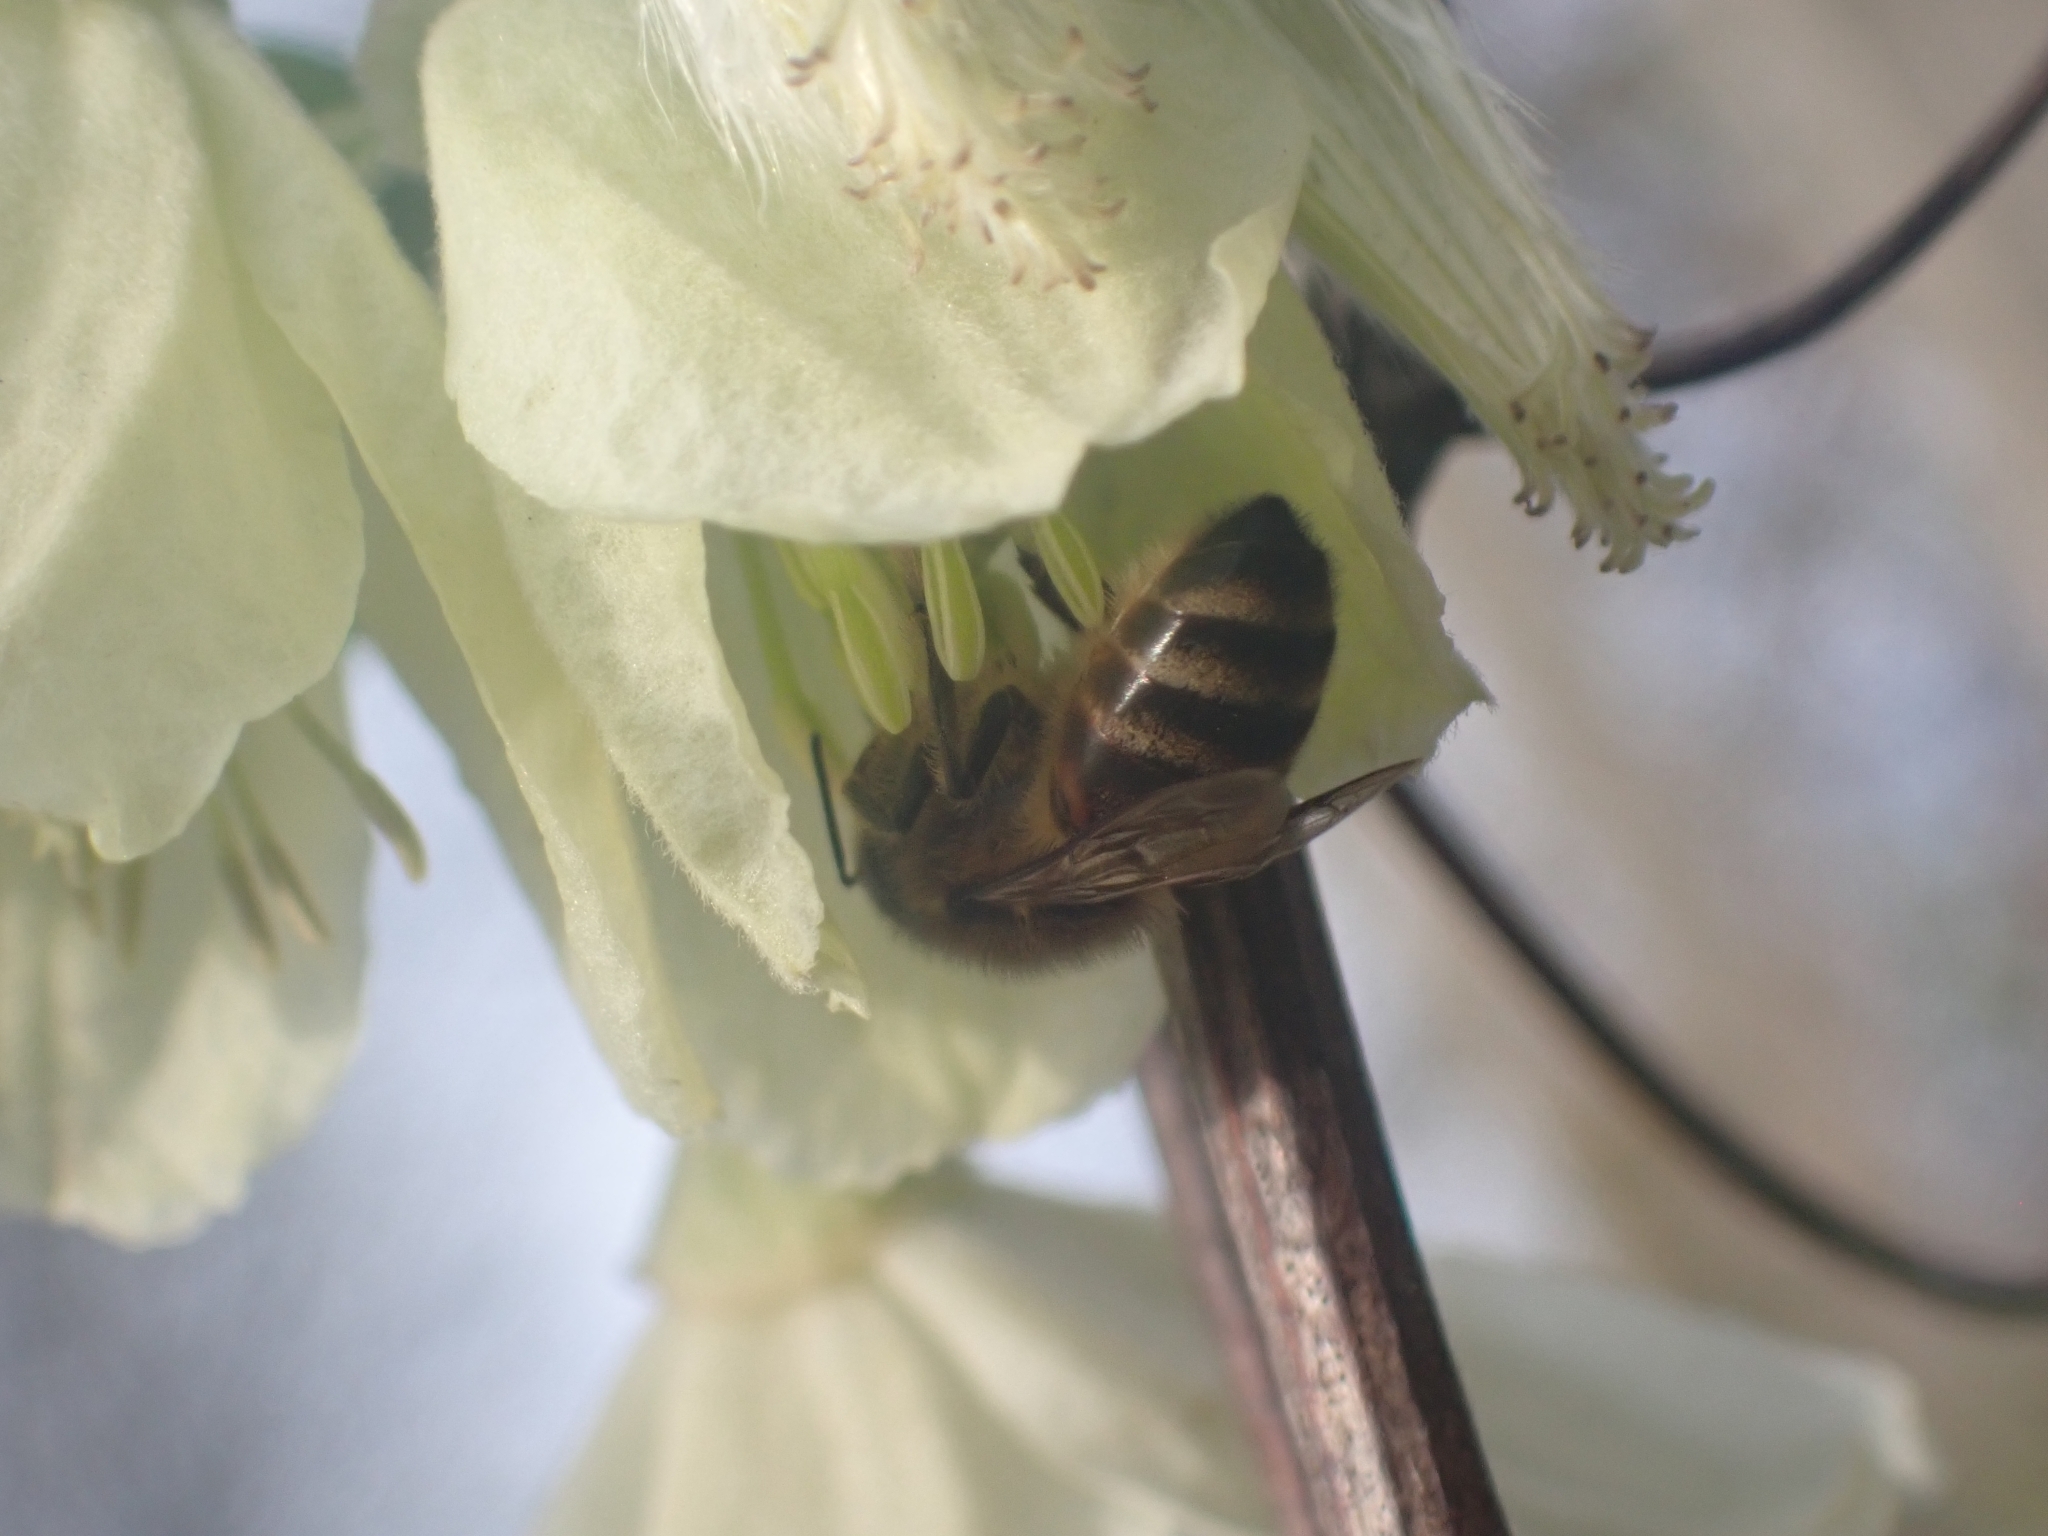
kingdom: Animalia
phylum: Arthropoda
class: Insecta
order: Hymenoptera
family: Apidae
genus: Apis
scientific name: Apis mellifera
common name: Honey bee
